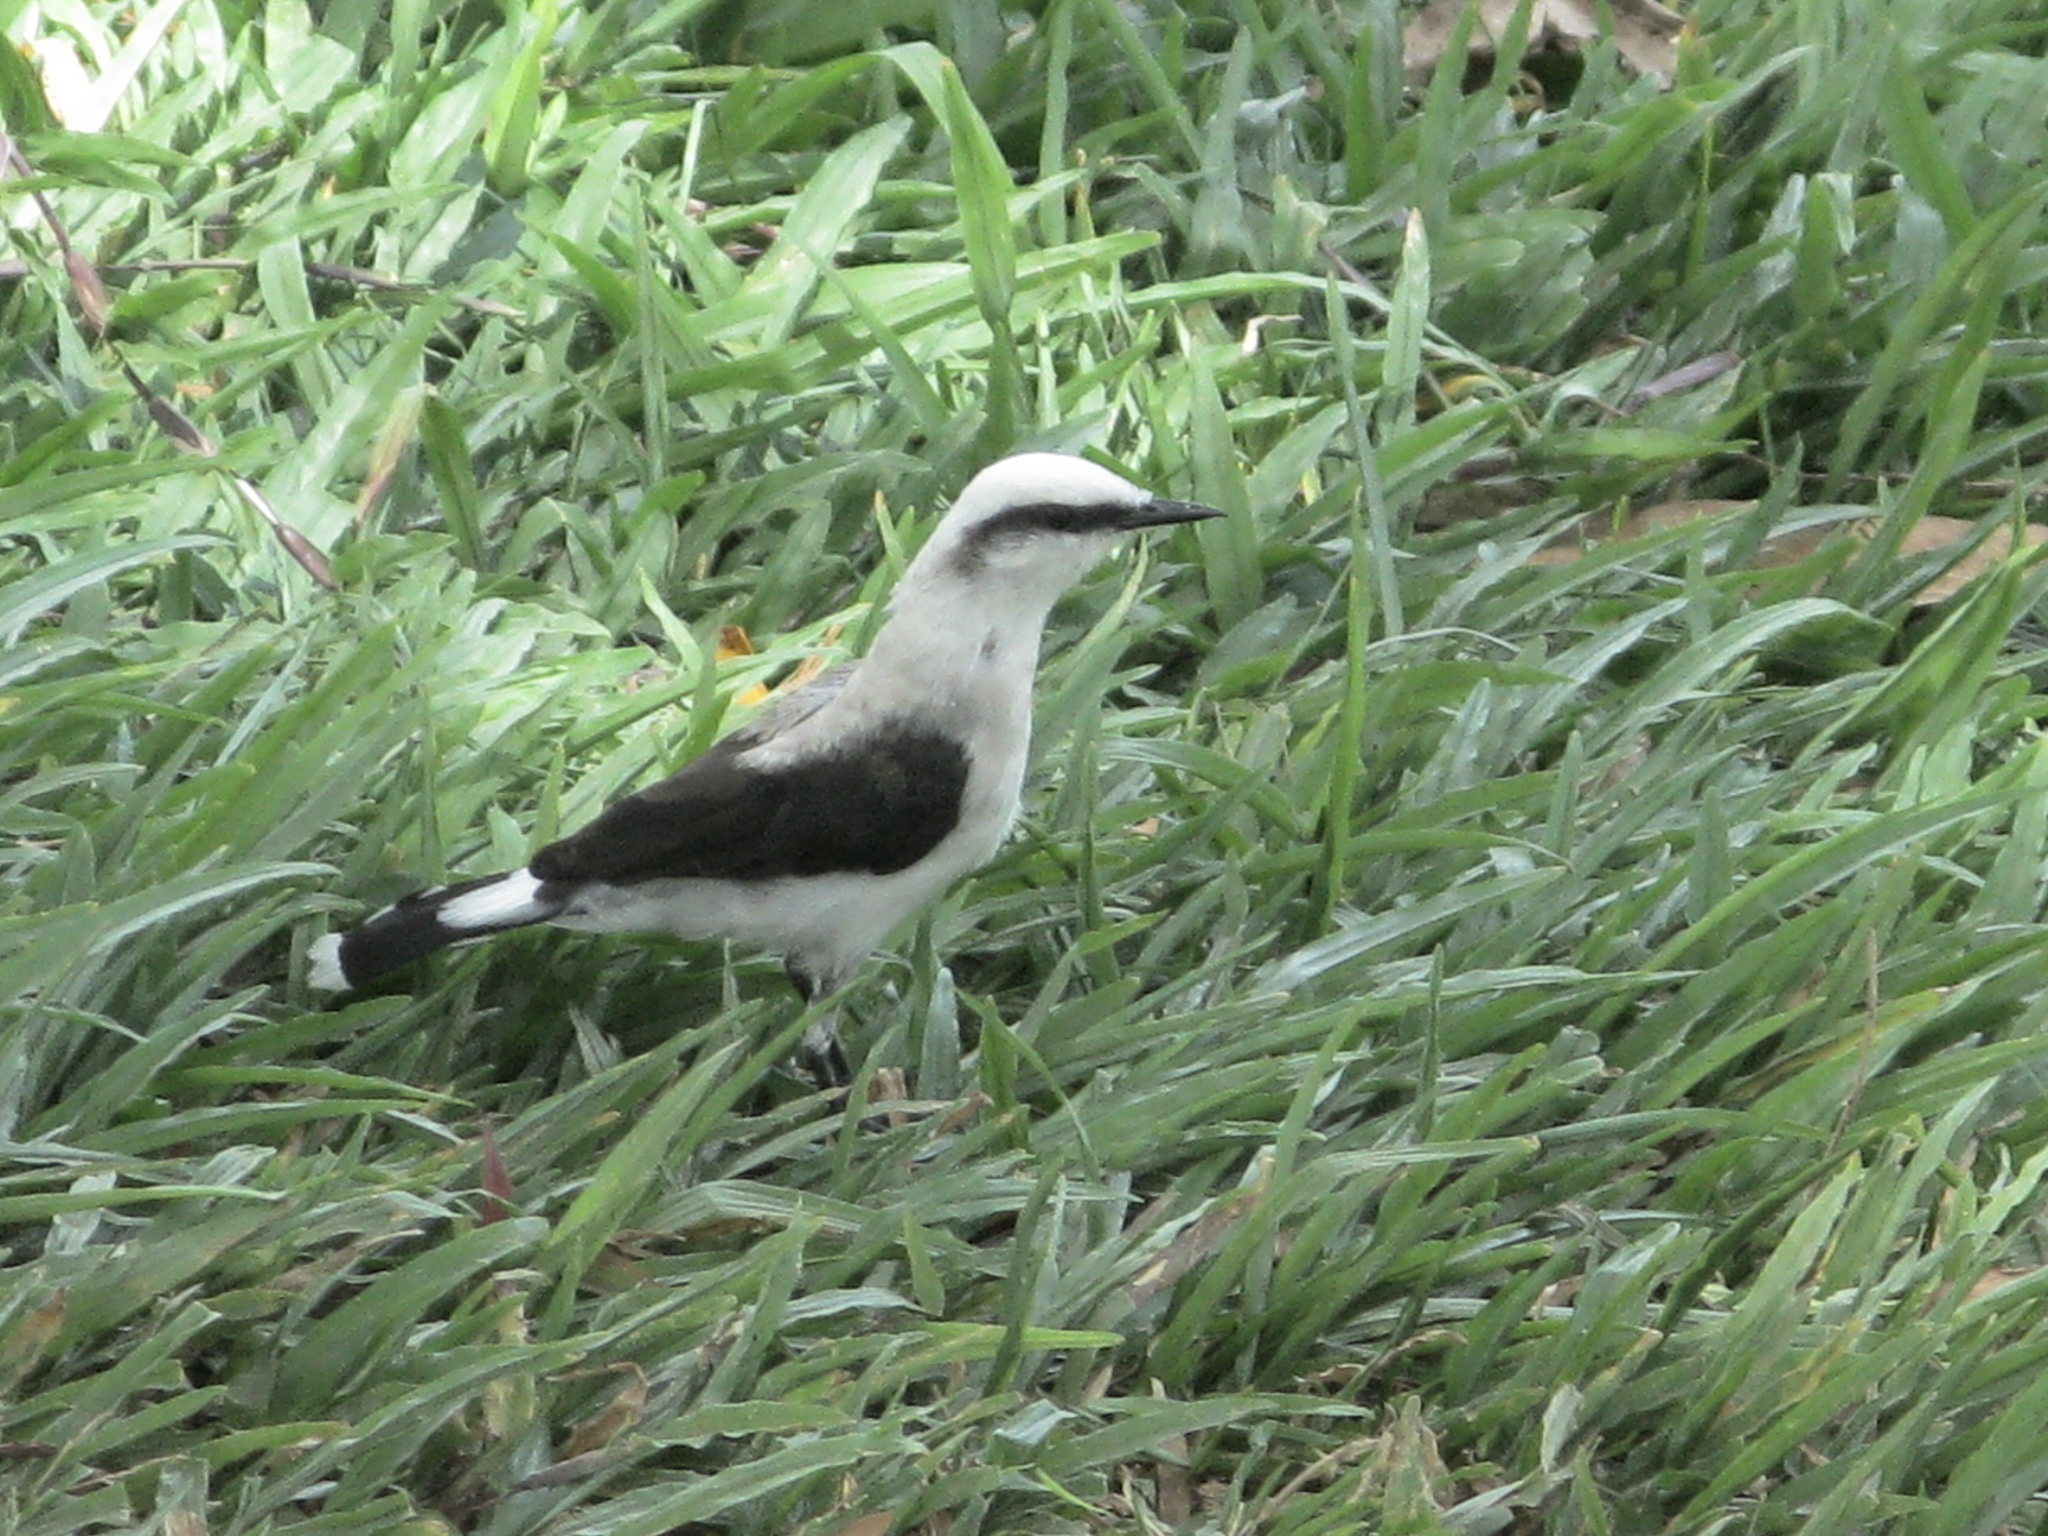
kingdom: Animalia
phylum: Chordata
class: Aves
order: Passeriformes
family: Tyrannidae
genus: Fluvicola
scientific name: Fluvicola nengeta
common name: Masked water tyrant
